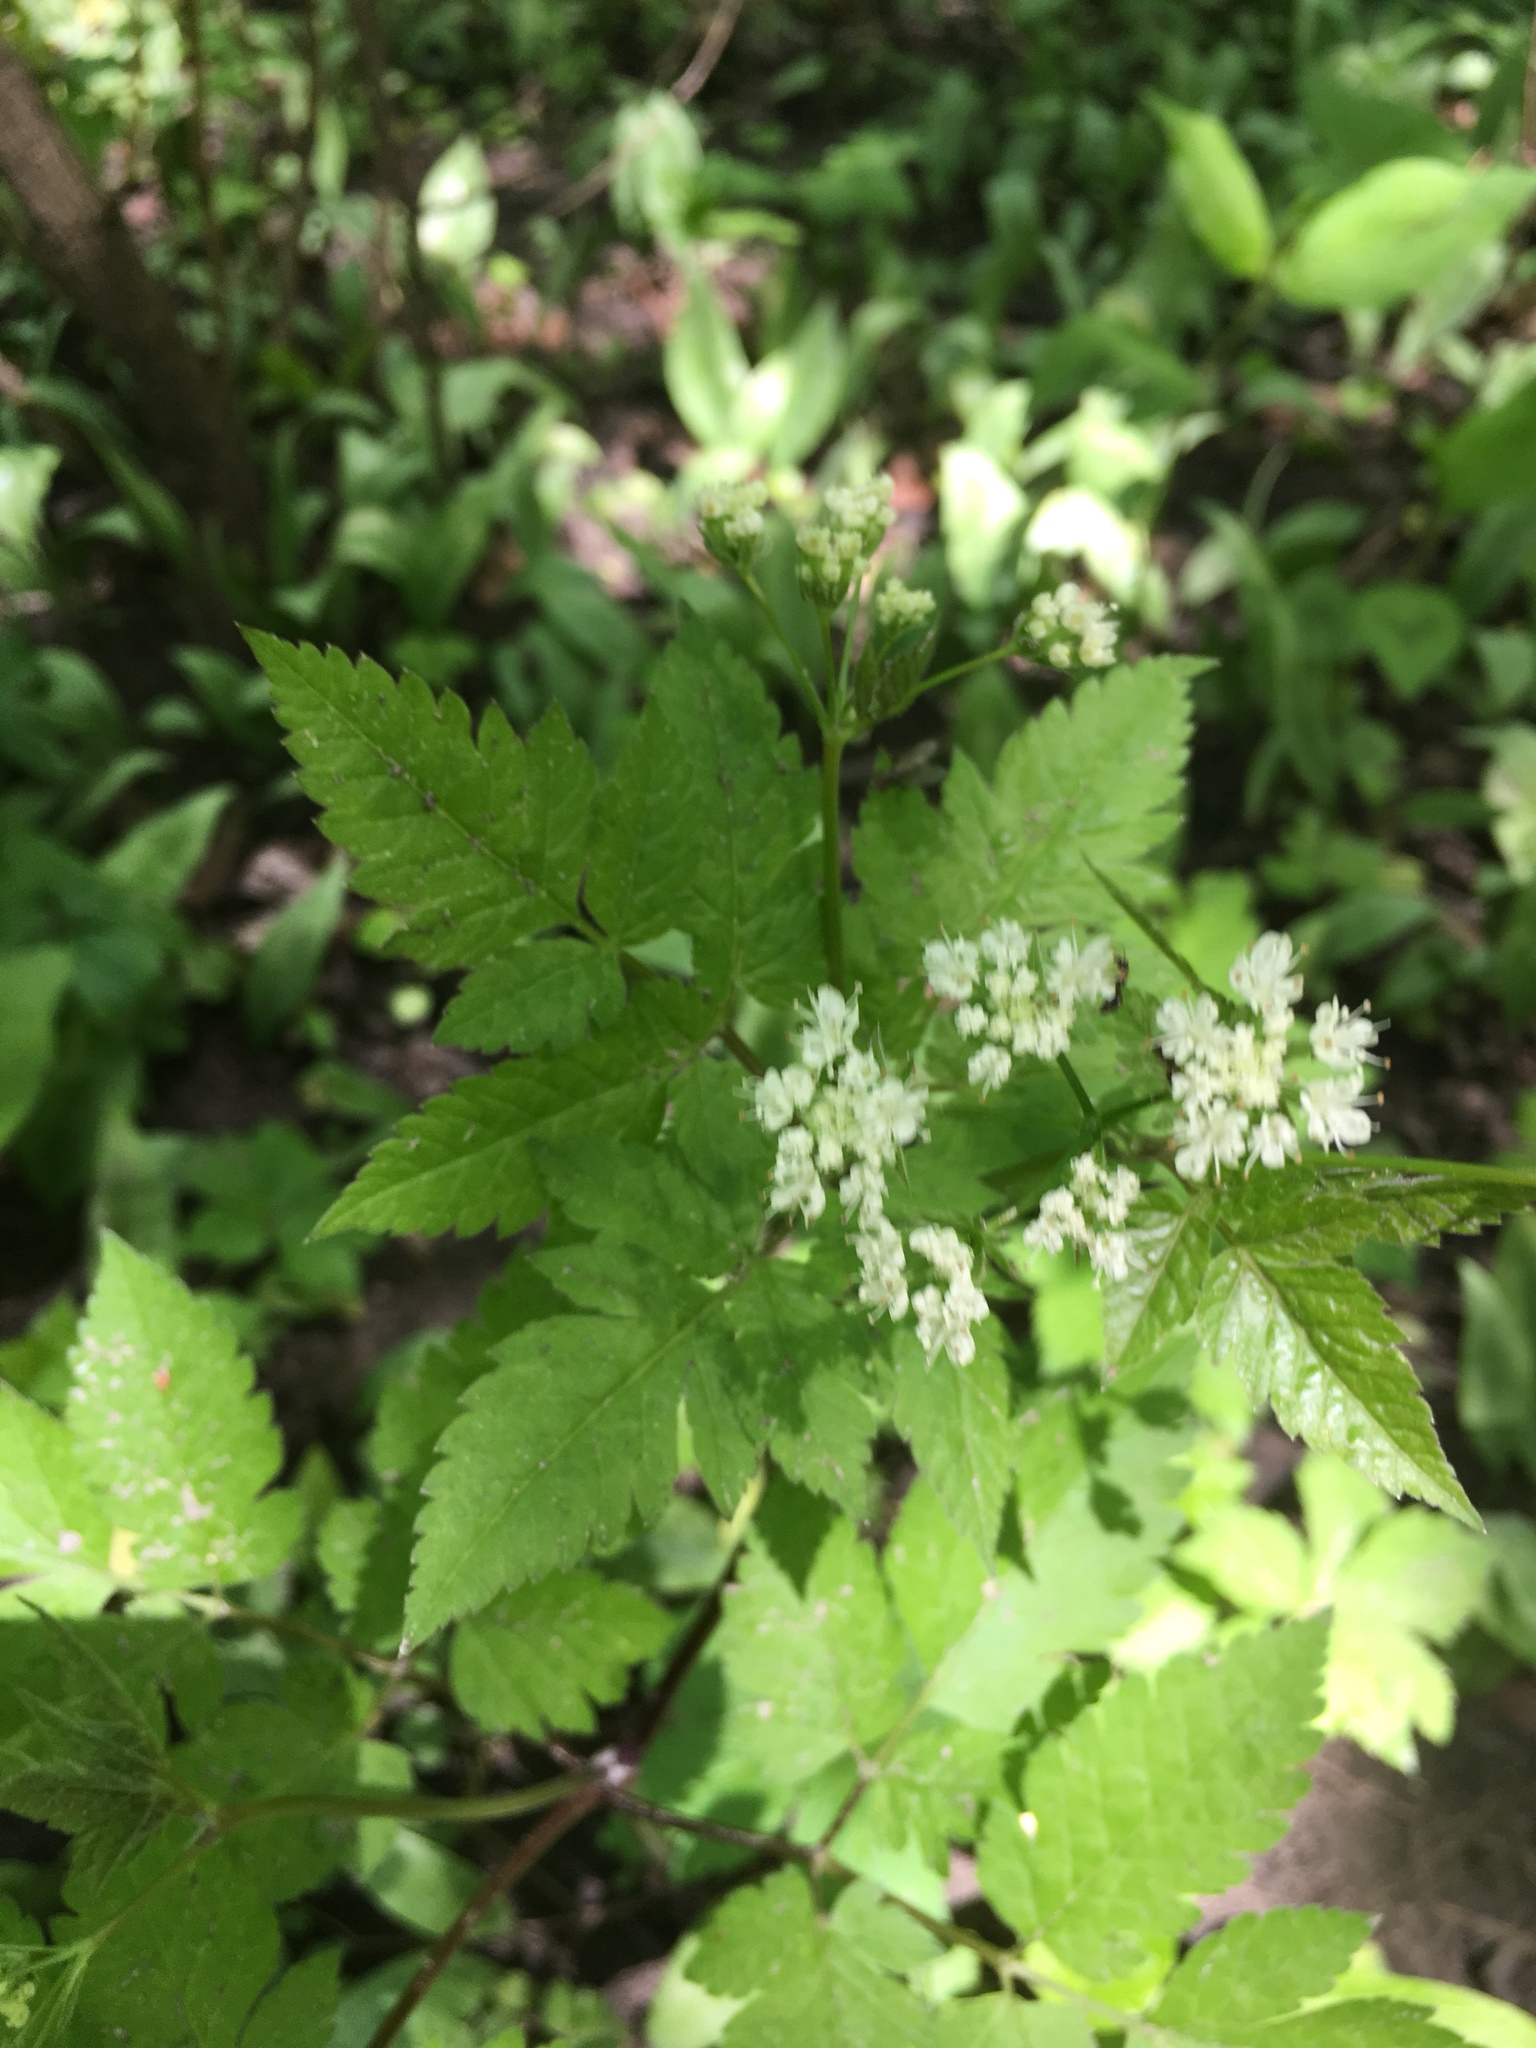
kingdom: Plantae
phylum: Tracheophyta
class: Magnoliopsida
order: Apiales
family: Apiaceae
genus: Osmorhiza
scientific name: Osmorhiza longistylis
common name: Smooth sweet cicely
